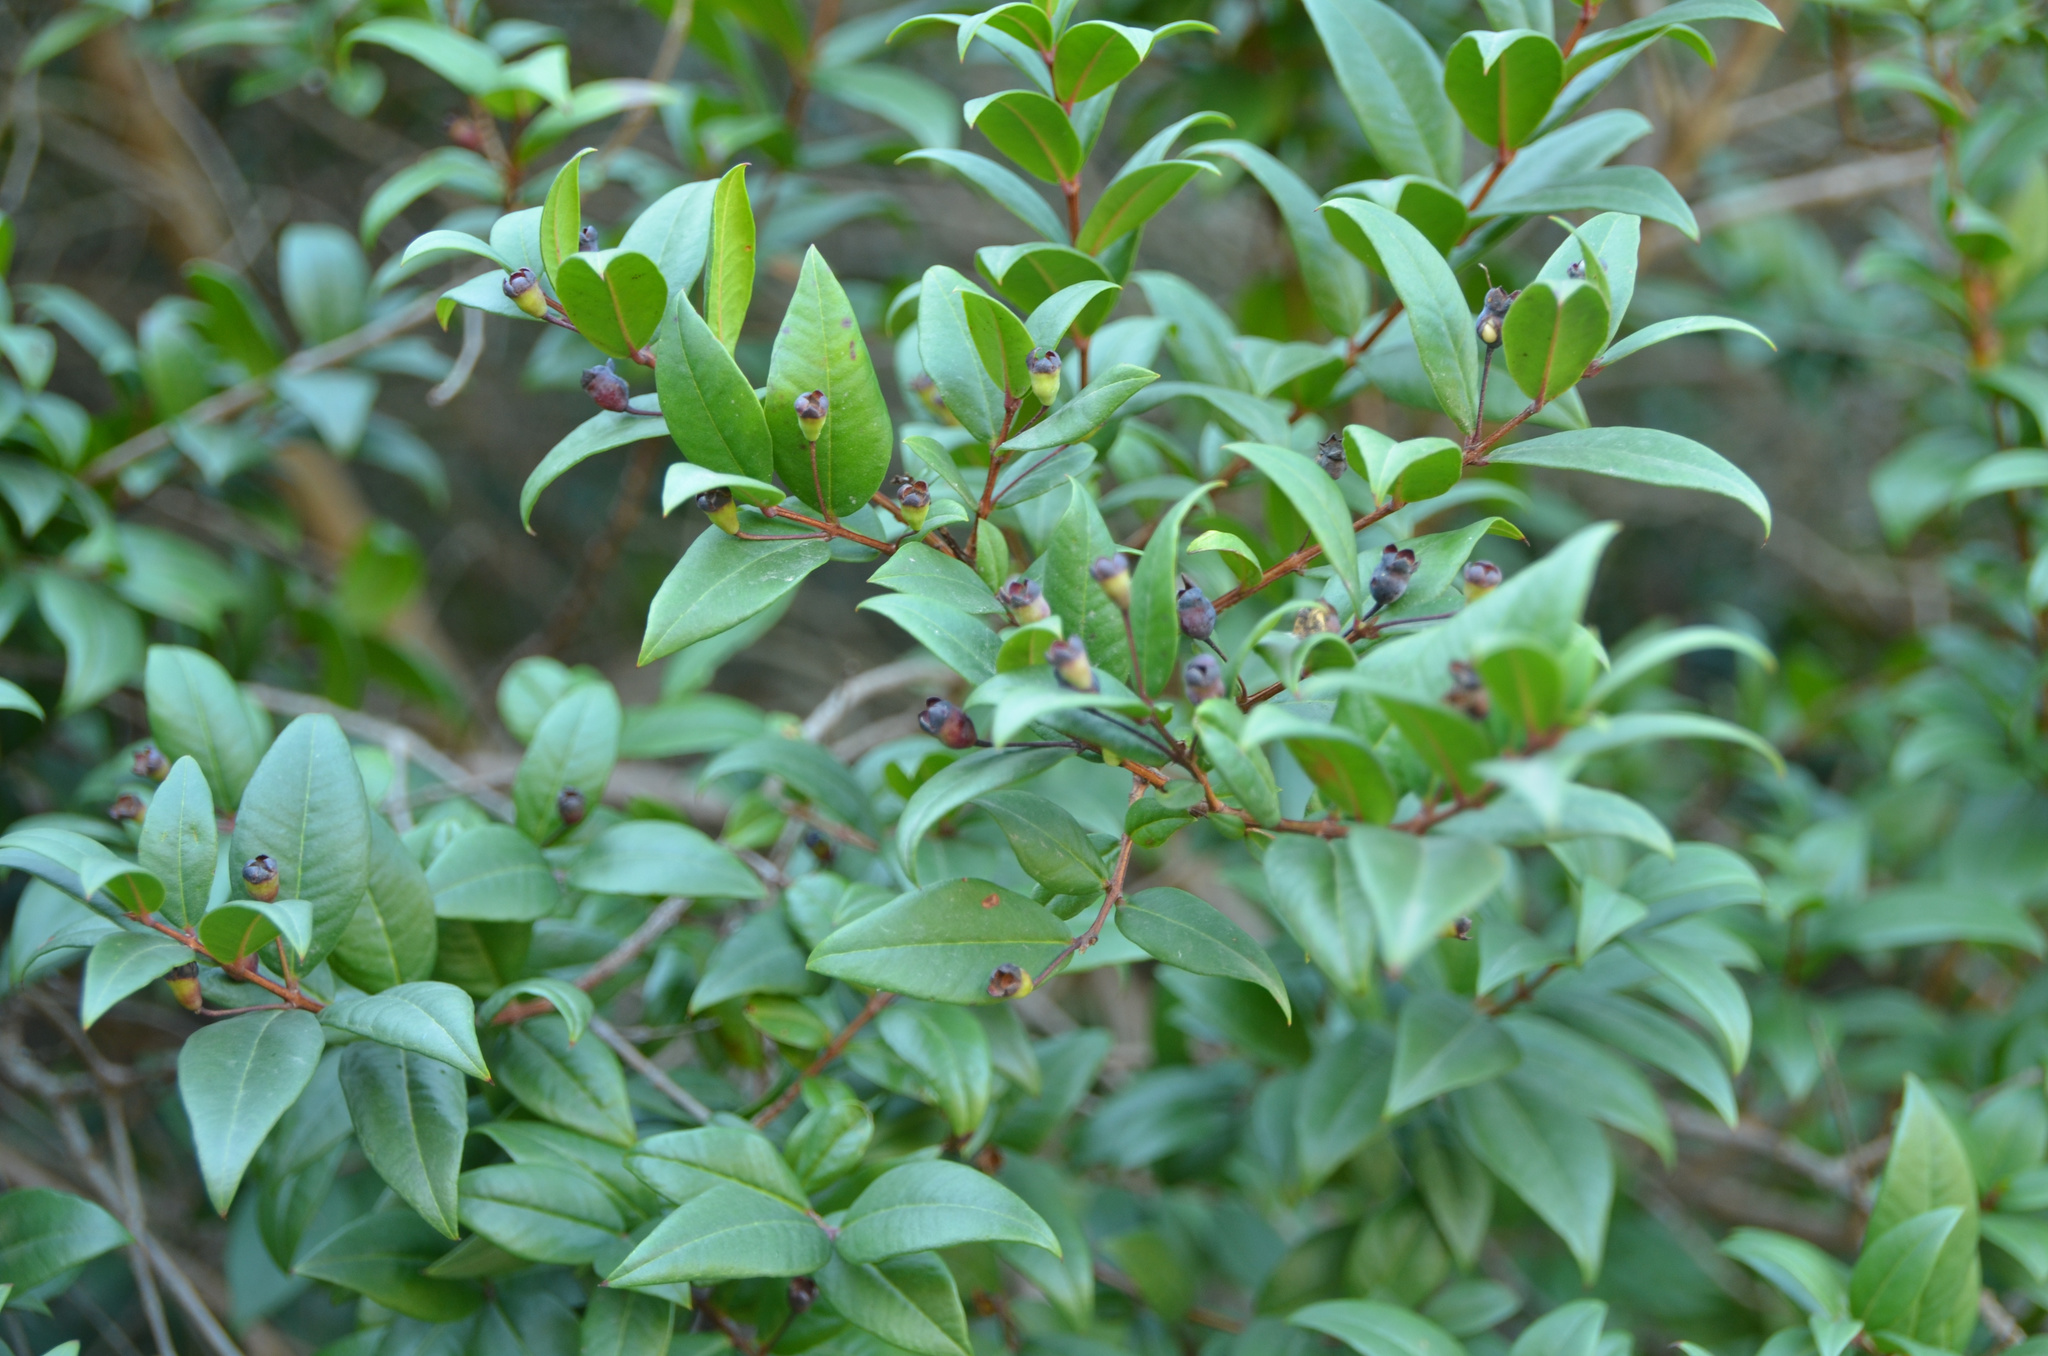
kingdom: Plantae
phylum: Tracheophyta
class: Magnoliopsida
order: Myrtales
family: Myrtaceae
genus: Myrtus
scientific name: Myrtus communis
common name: Myrtle
